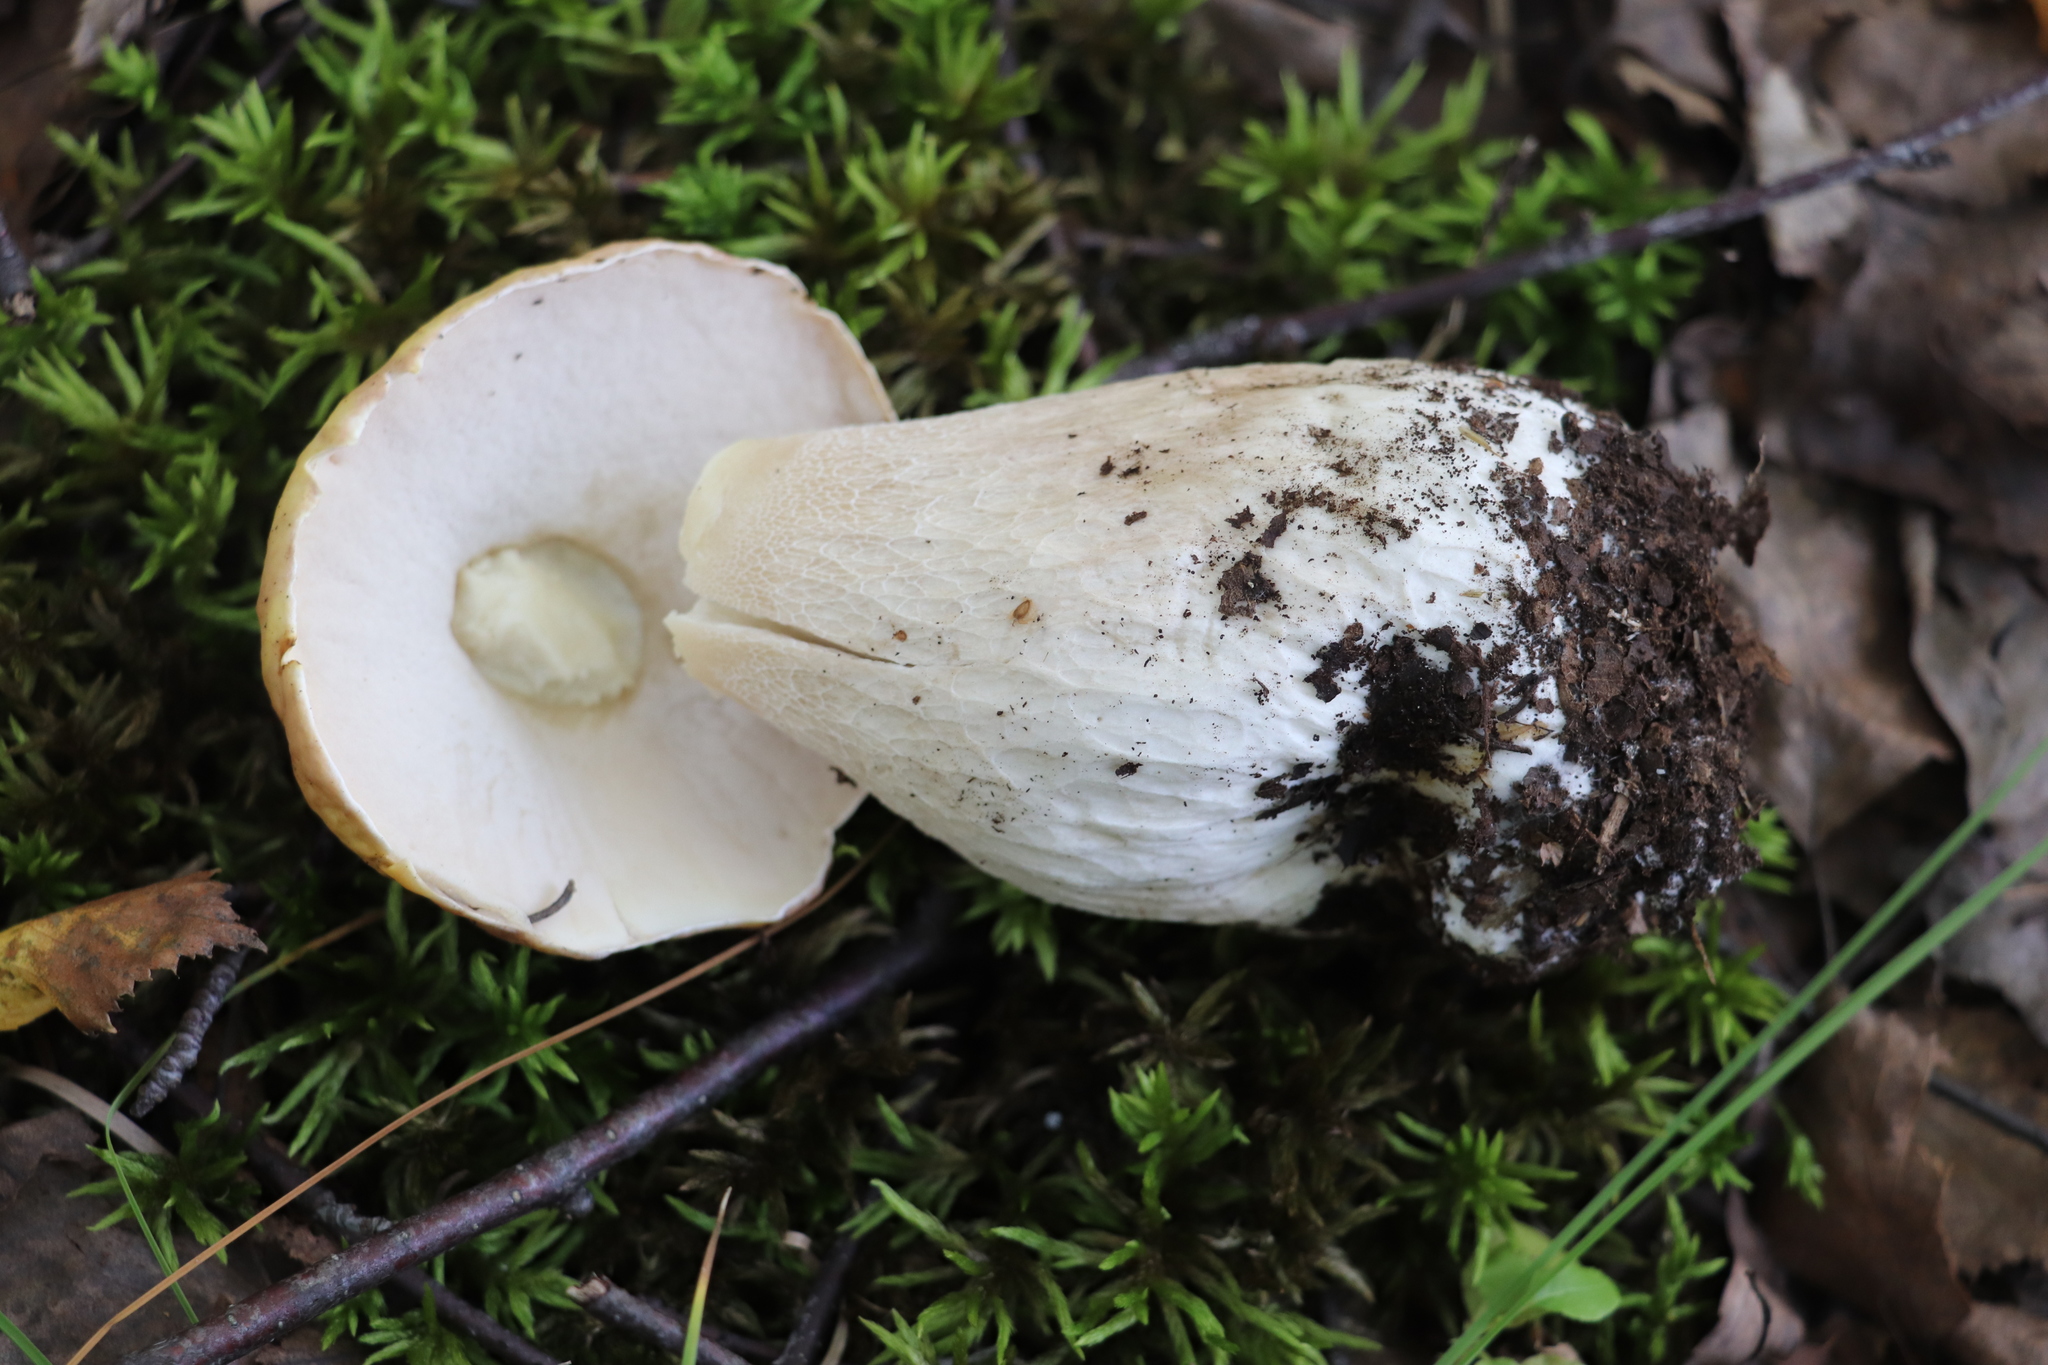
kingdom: Fungi
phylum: Basidiomycota
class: Agaricomycetes
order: Boletales
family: Boletaceae
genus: Boletus
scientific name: Boletus edulis
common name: Cep
